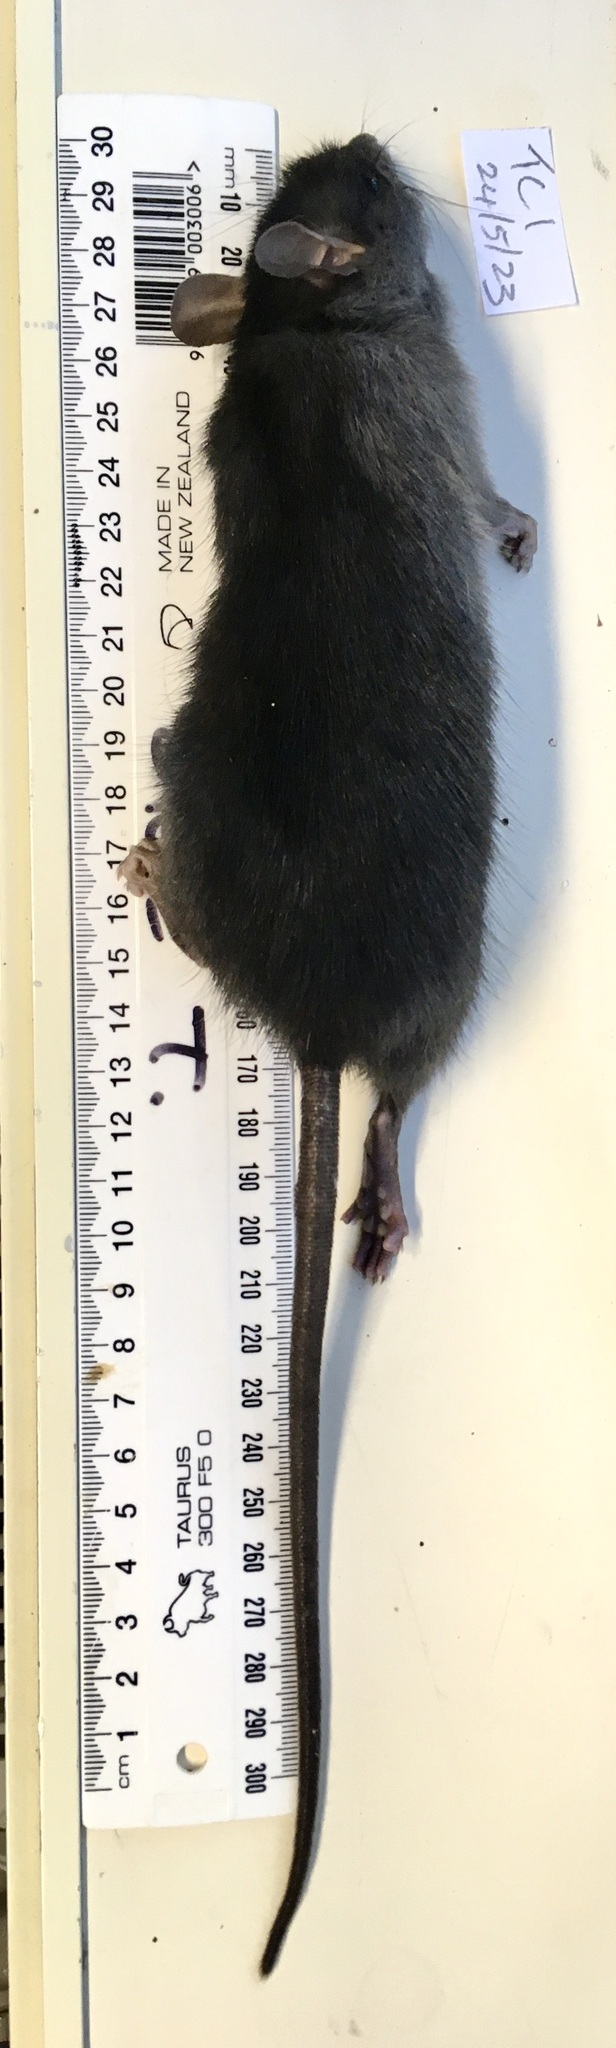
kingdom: Animalia
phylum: Chordata
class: Mammalia
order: Rodentia
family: Muridae
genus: Rattus
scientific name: Rattus rattus
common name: Black rat
